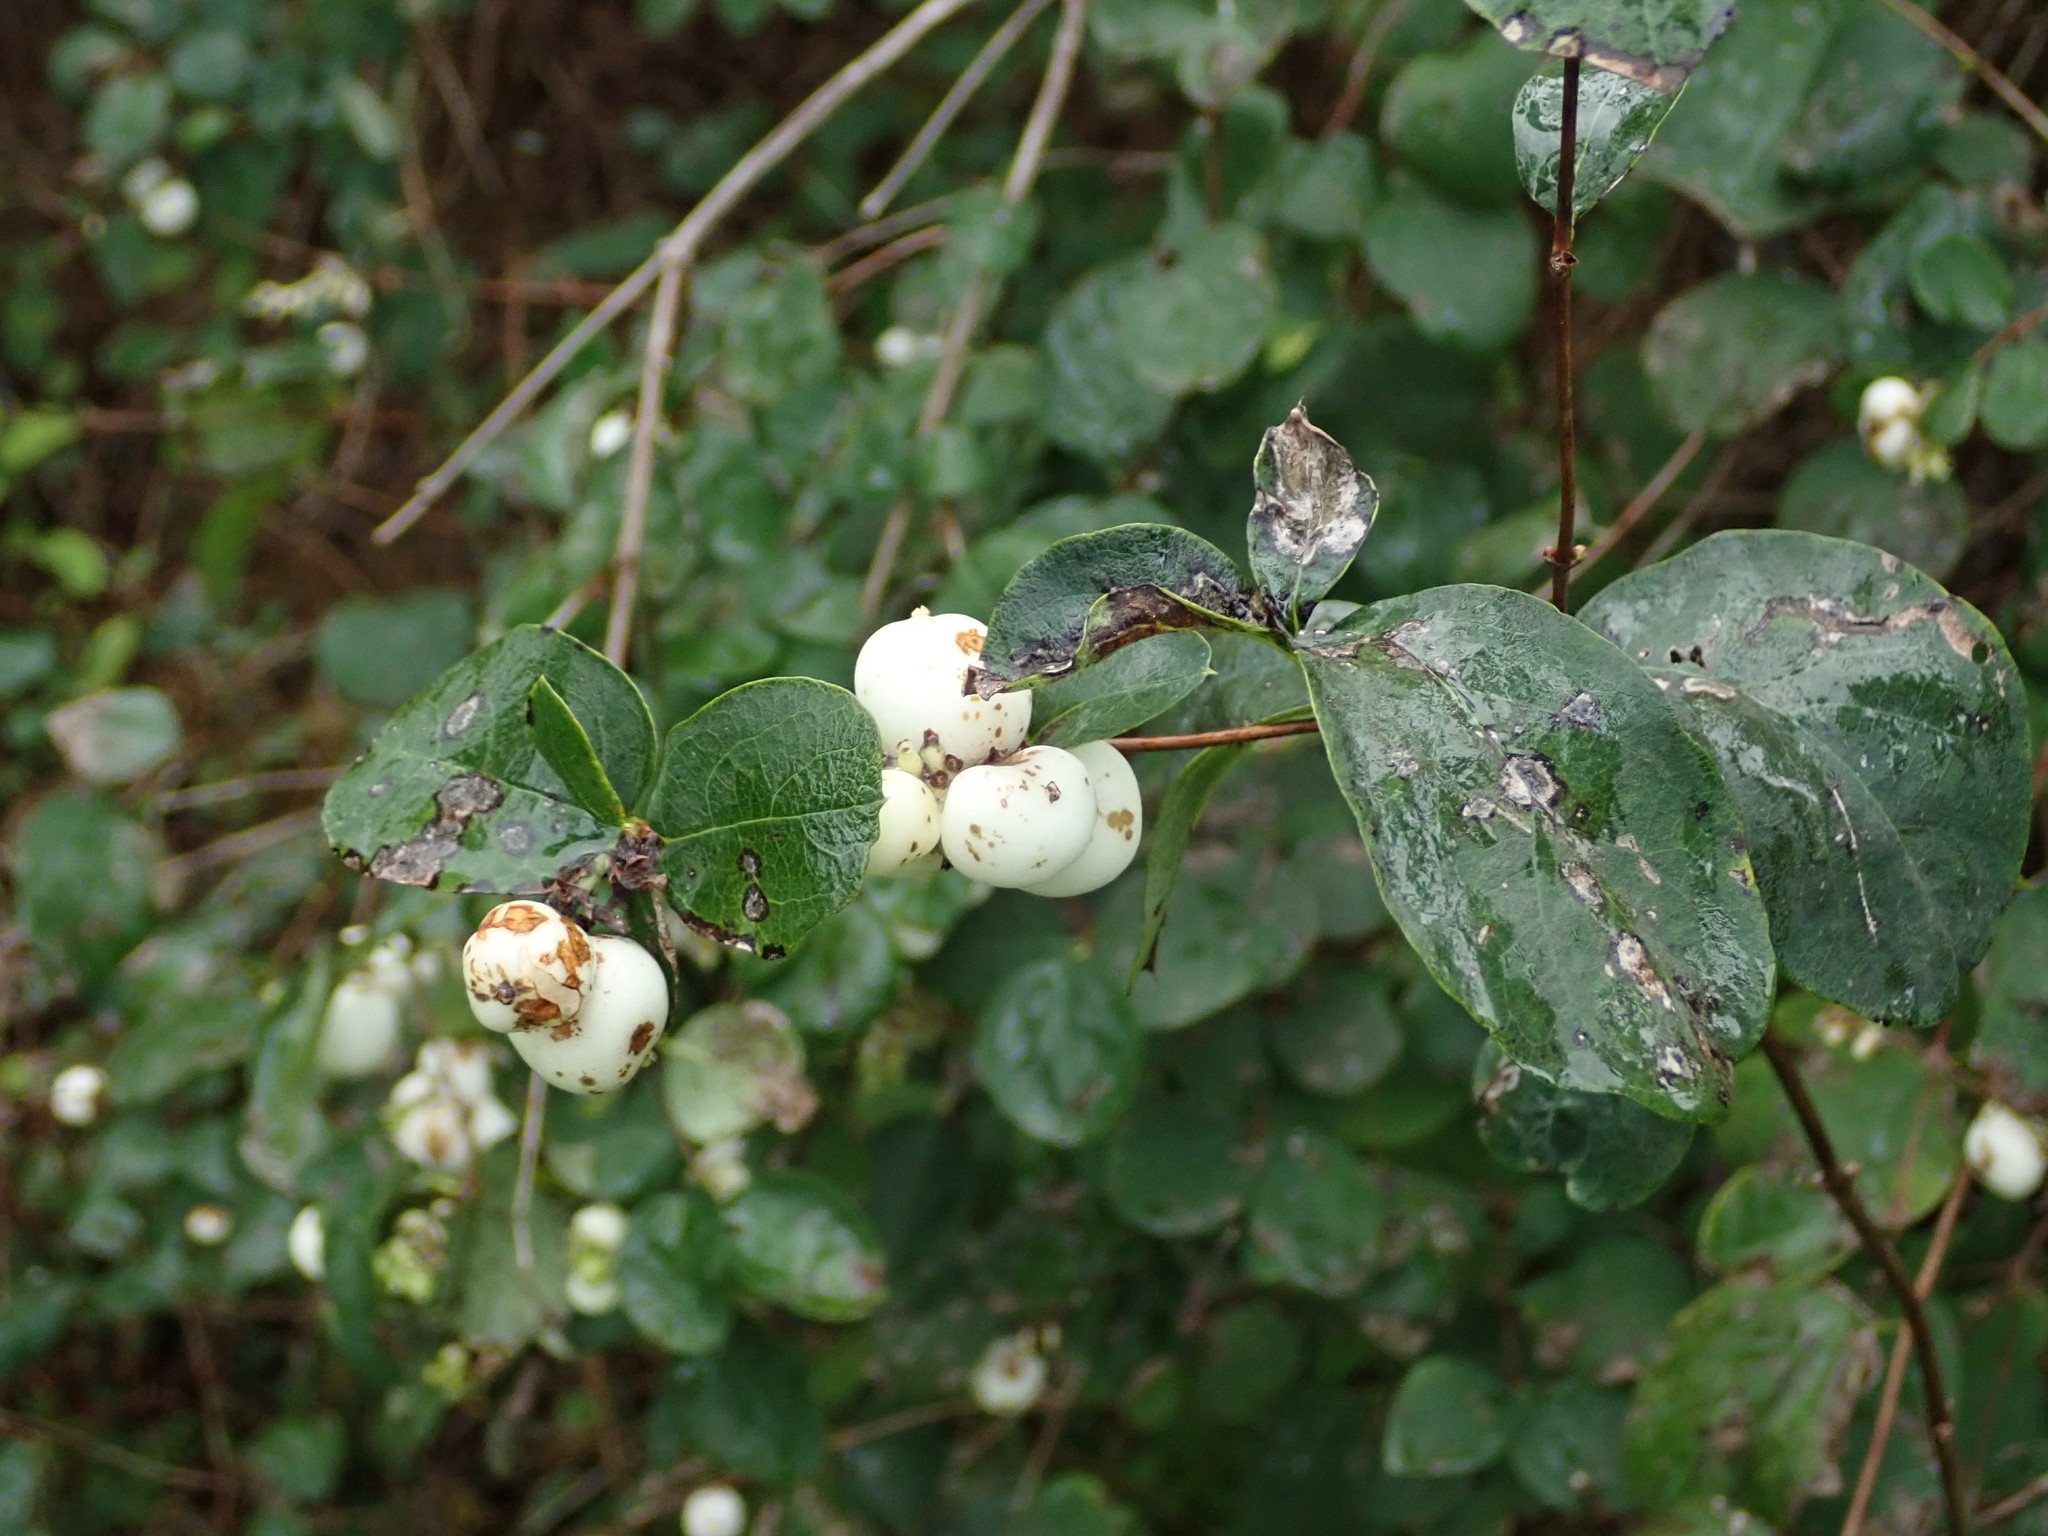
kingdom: Plantae
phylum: Tracheophyta
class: Magnoliopsida
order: Dipsacales
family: Caprifoliaceae
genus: Symphoricarpos
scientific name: Symphoricarpos albus
